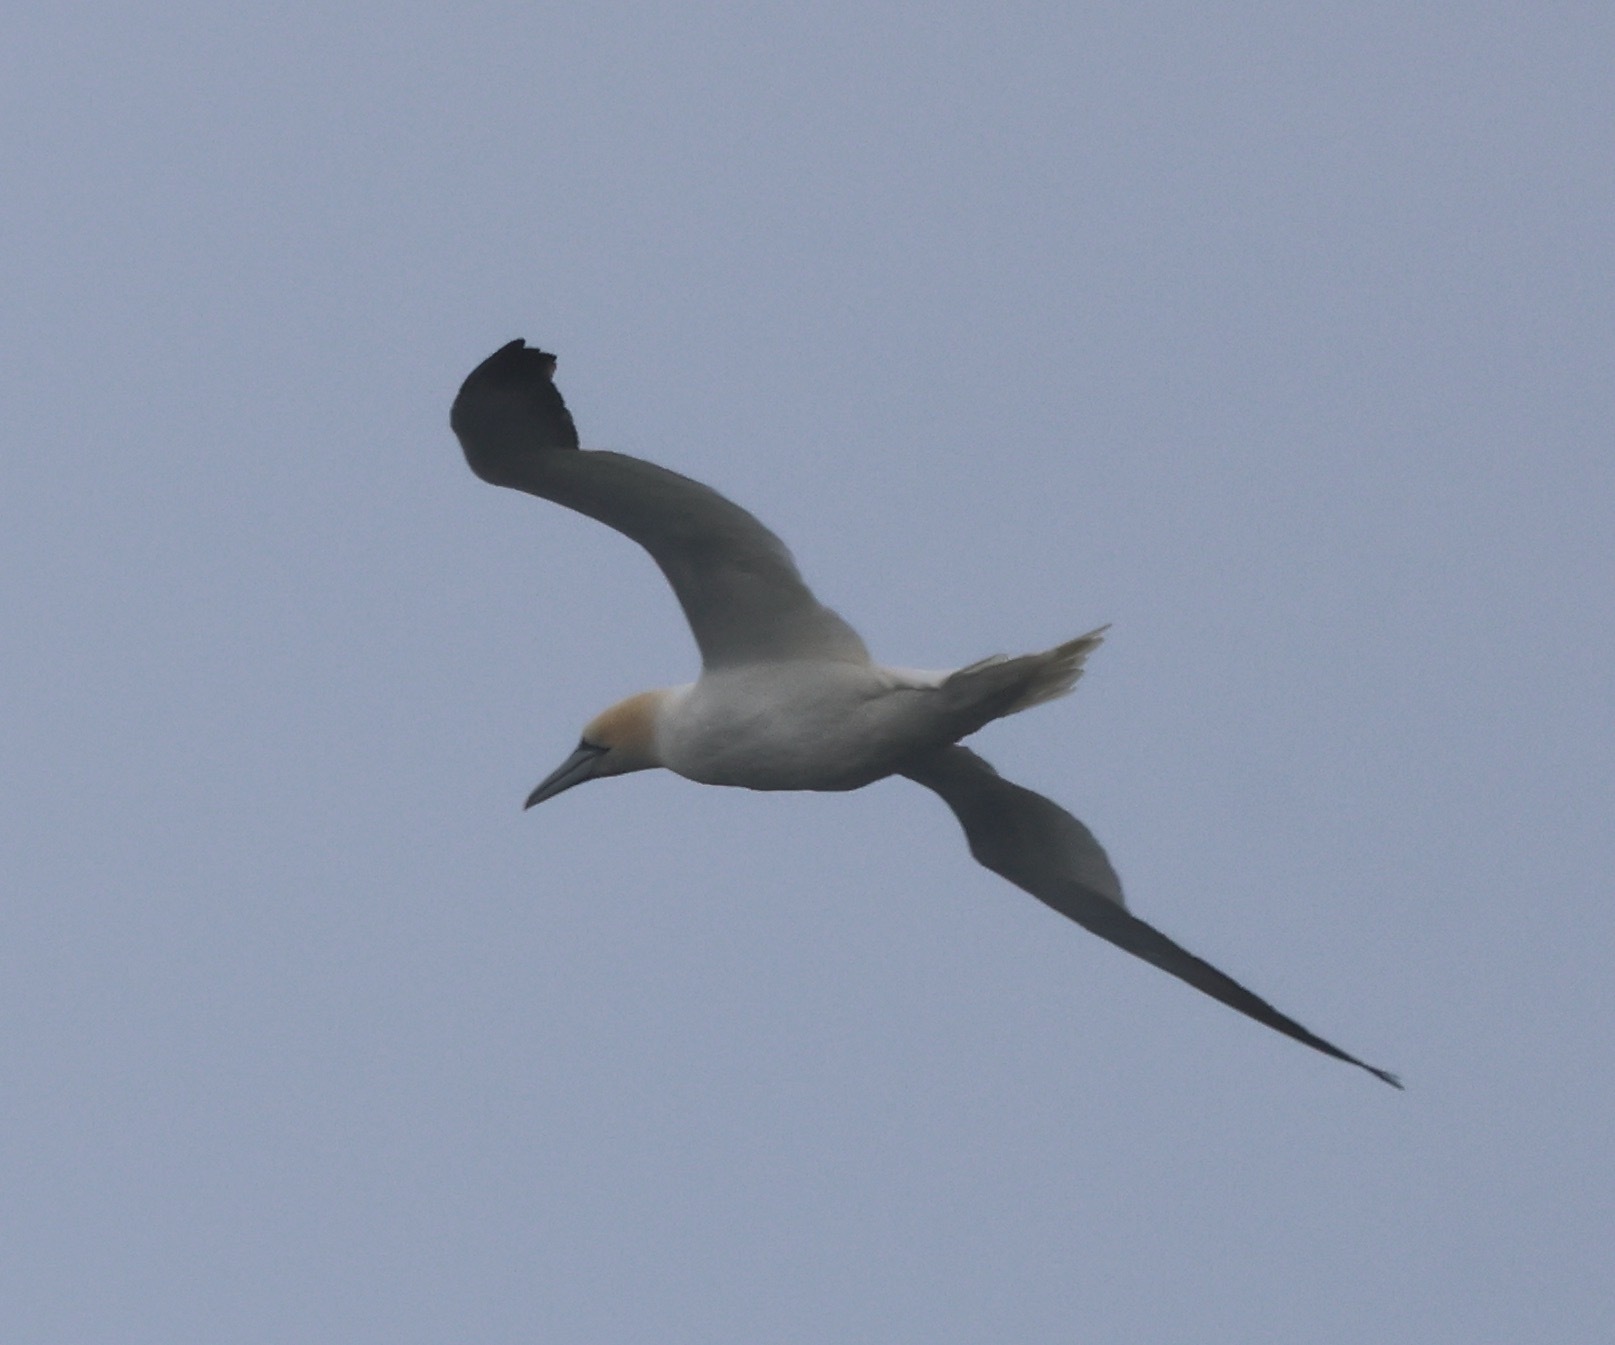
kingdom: Animalia
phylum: Chordata
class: Aves
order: Suliformes
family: Sulidae
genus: Morus
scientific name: Morus bassanus
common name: Northern gannet
